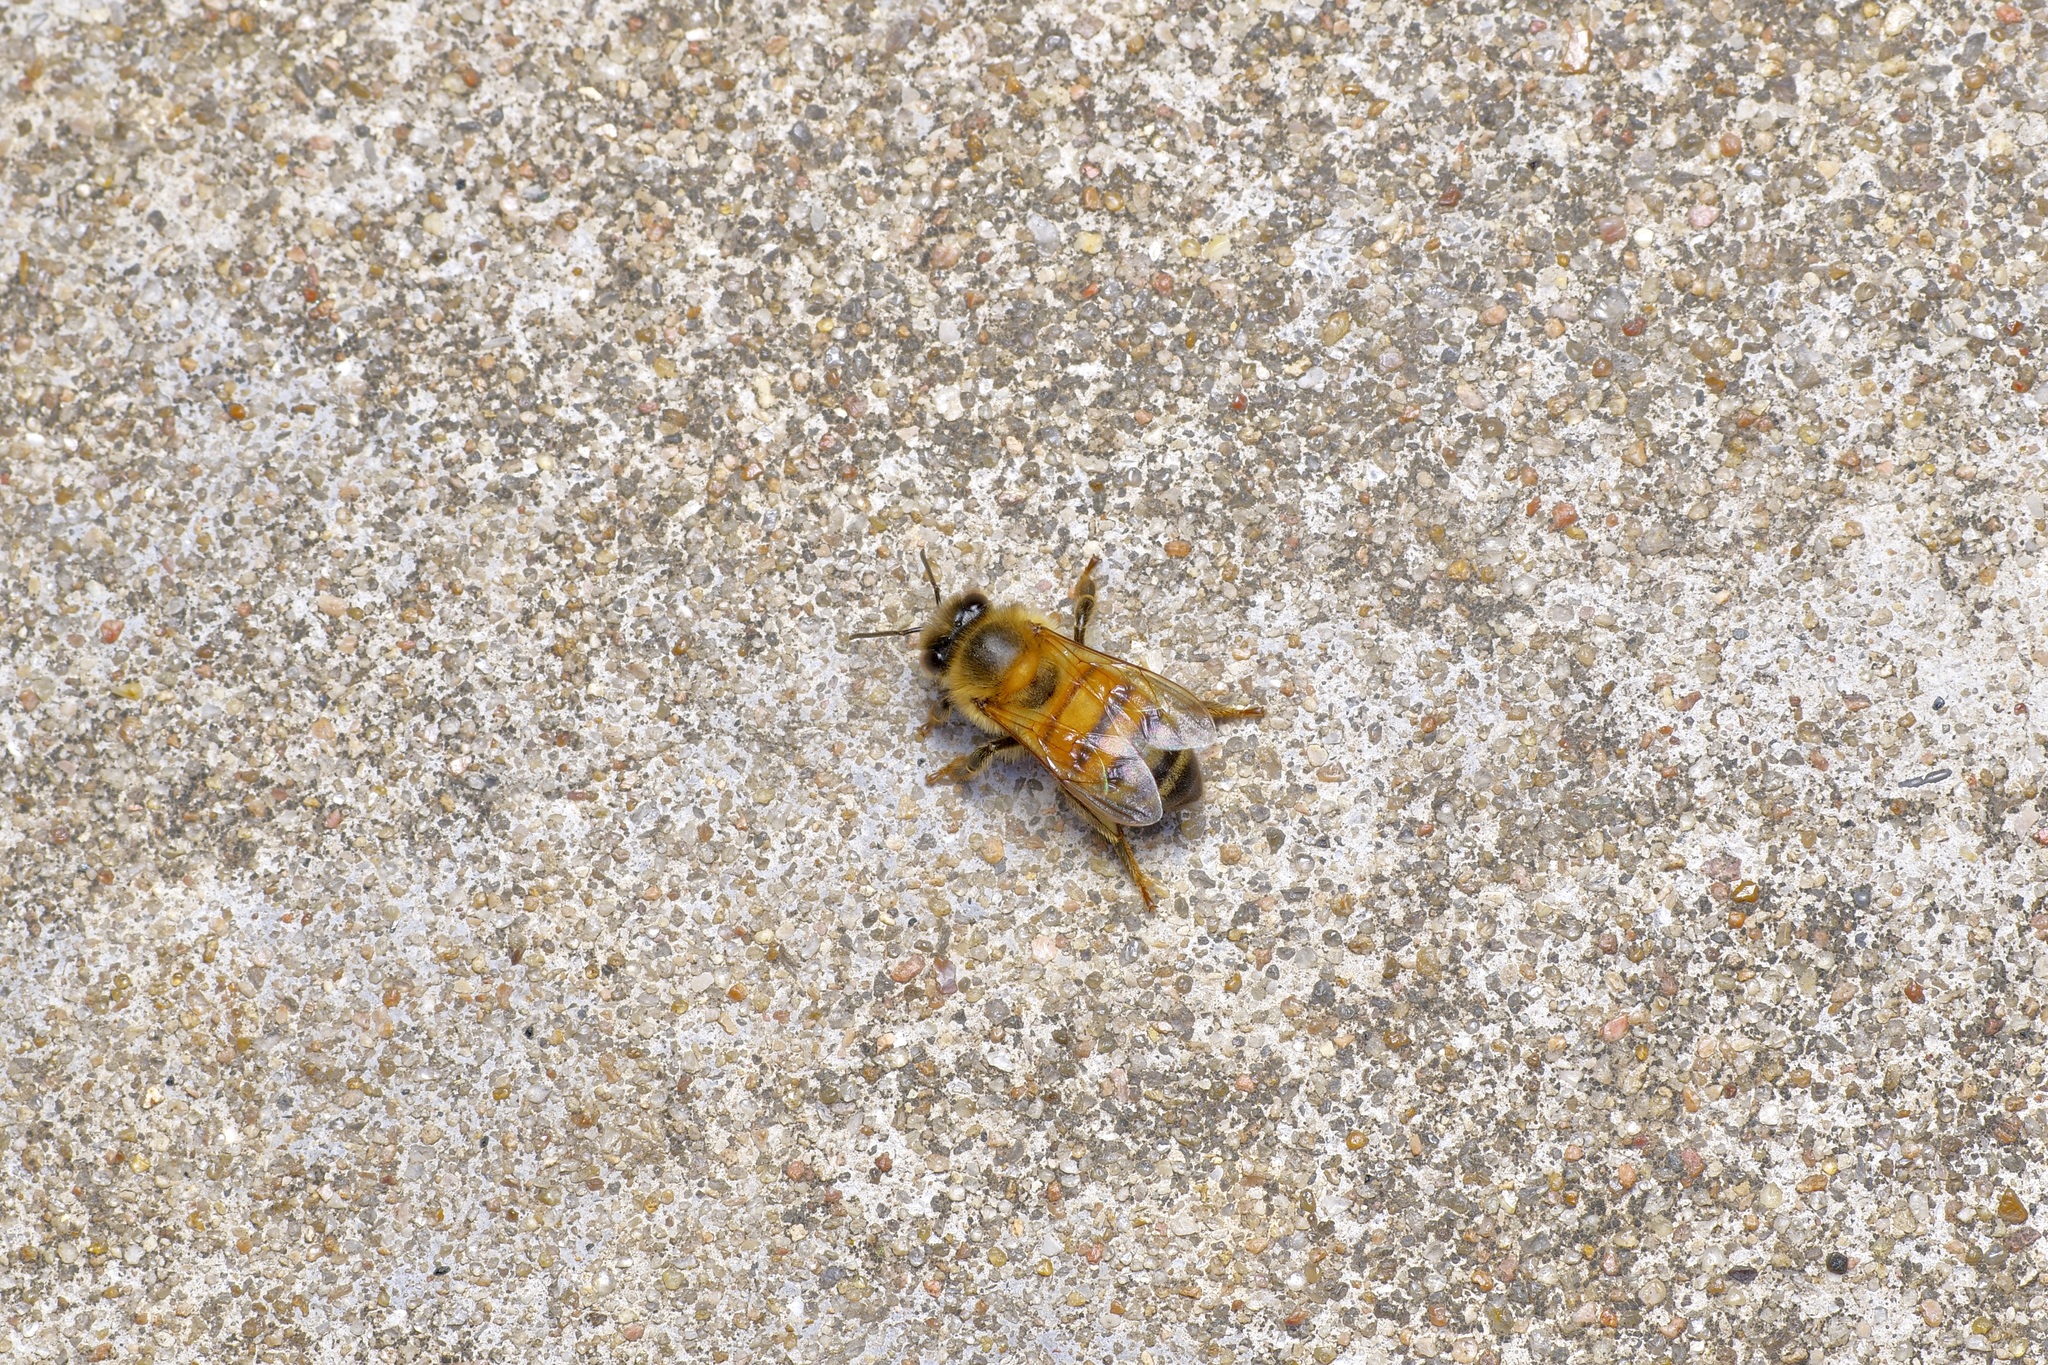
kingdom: Animalia
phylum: Arthropoda
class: Insecta
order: Hymenoptera
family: Apidae
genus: Apis
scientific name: Apis mellifera
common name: Honey bee
